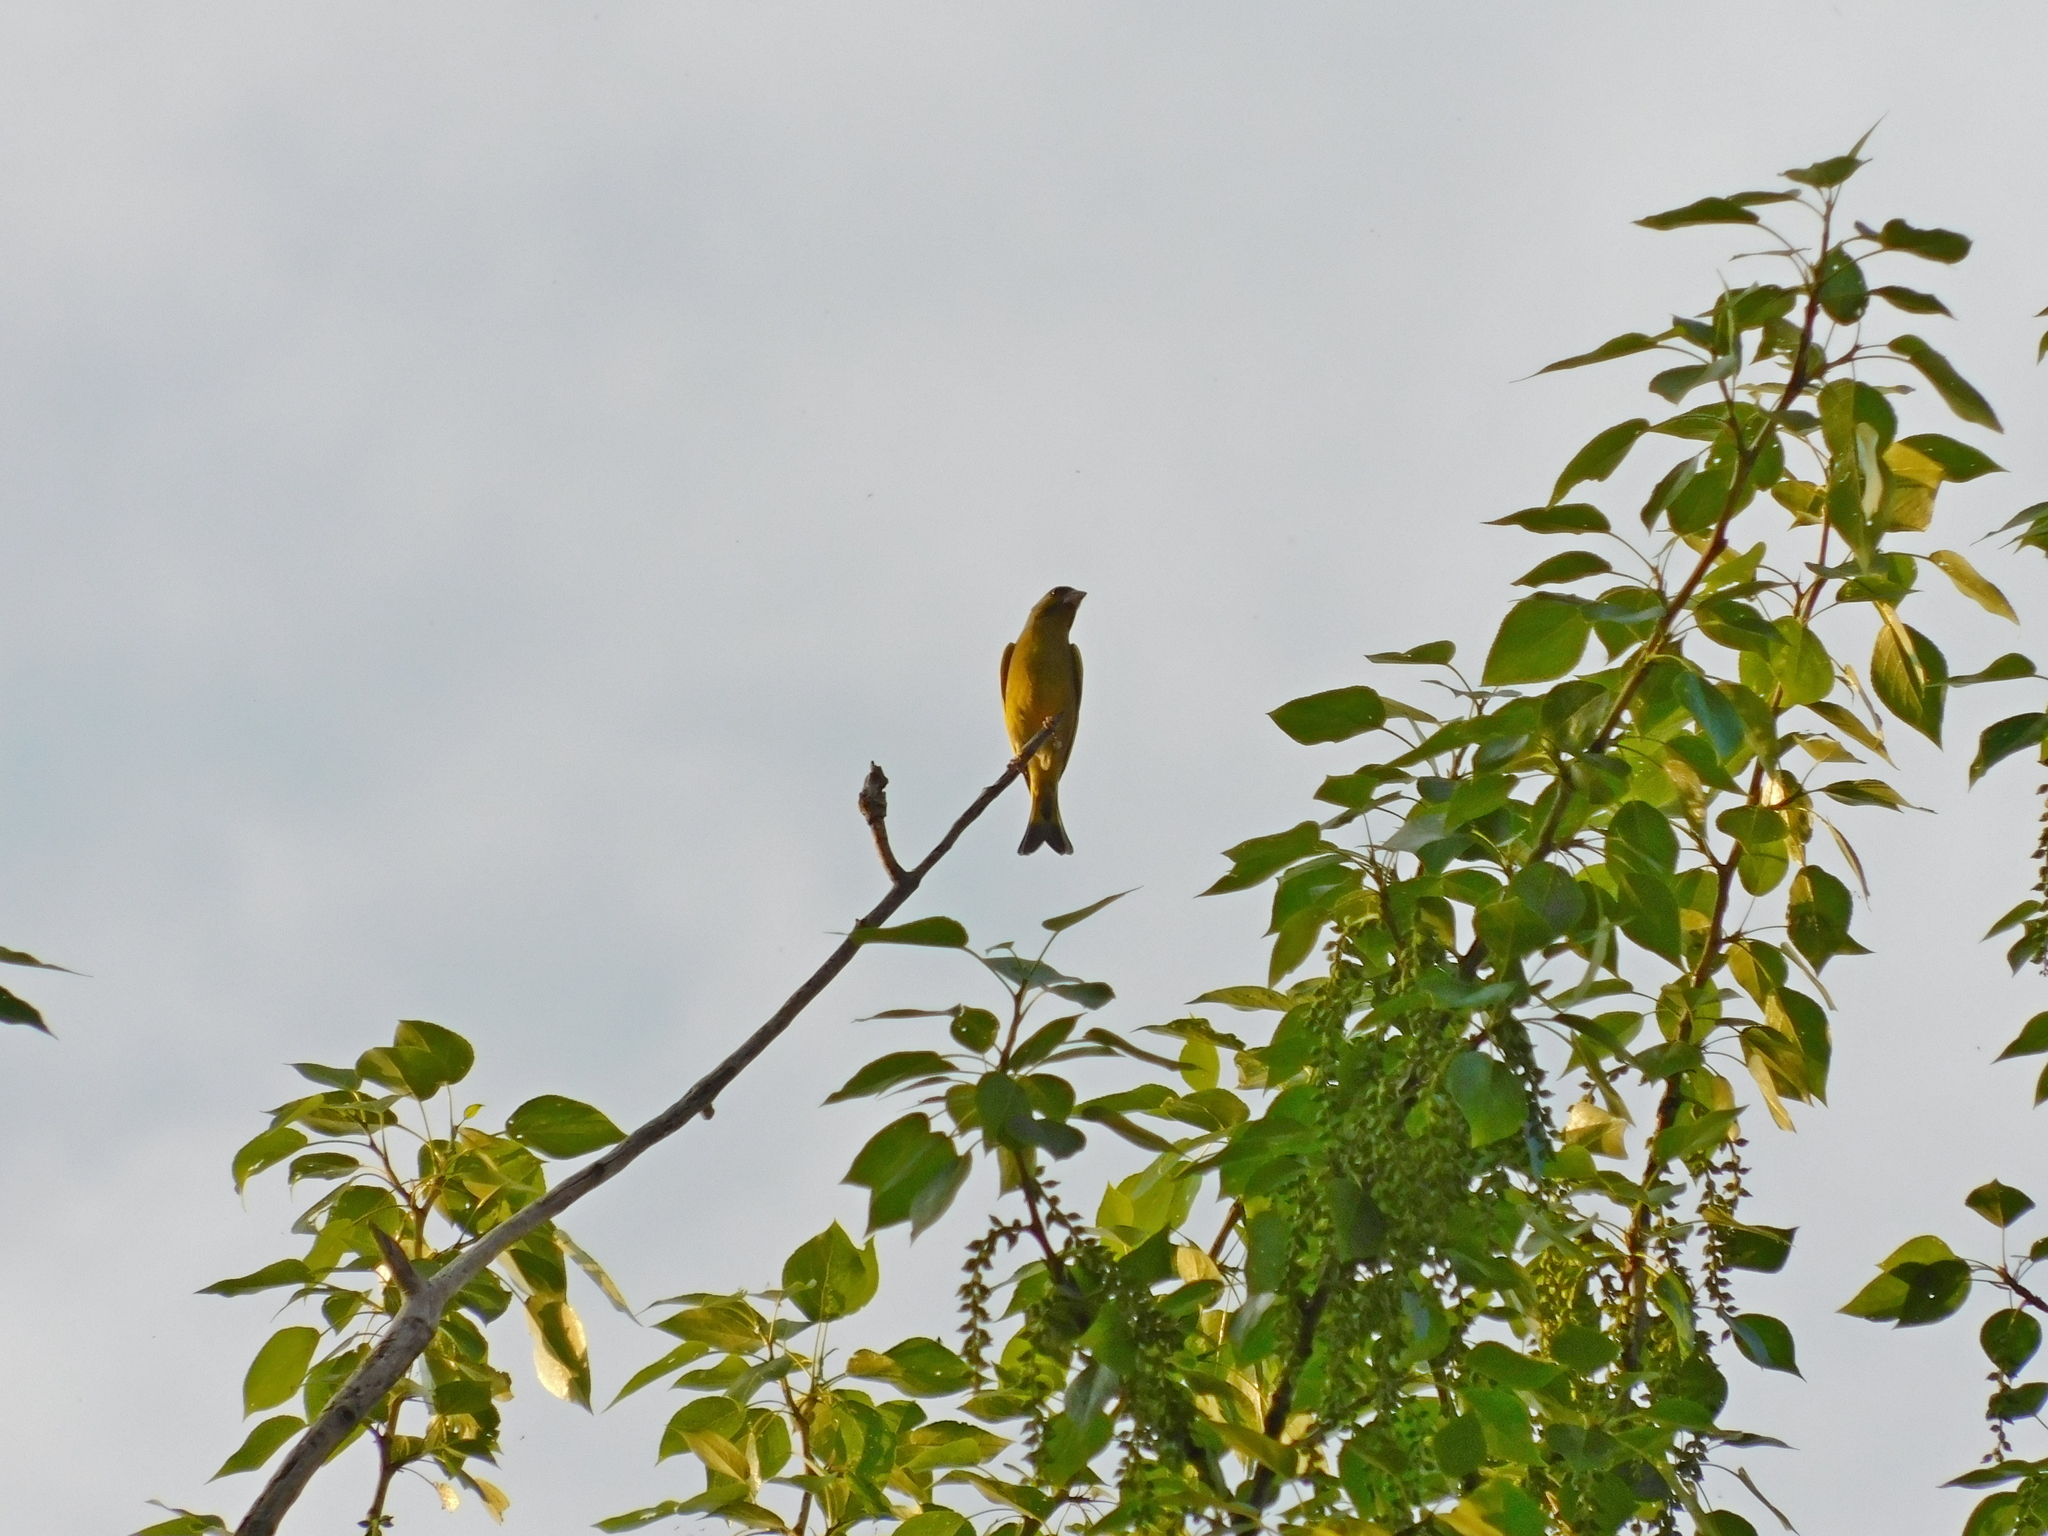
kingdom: Plantae
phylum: Tracheophyta
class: Liliopsida
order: Poales
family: Poaceae
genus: Chloris
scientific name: Chloris chloris
